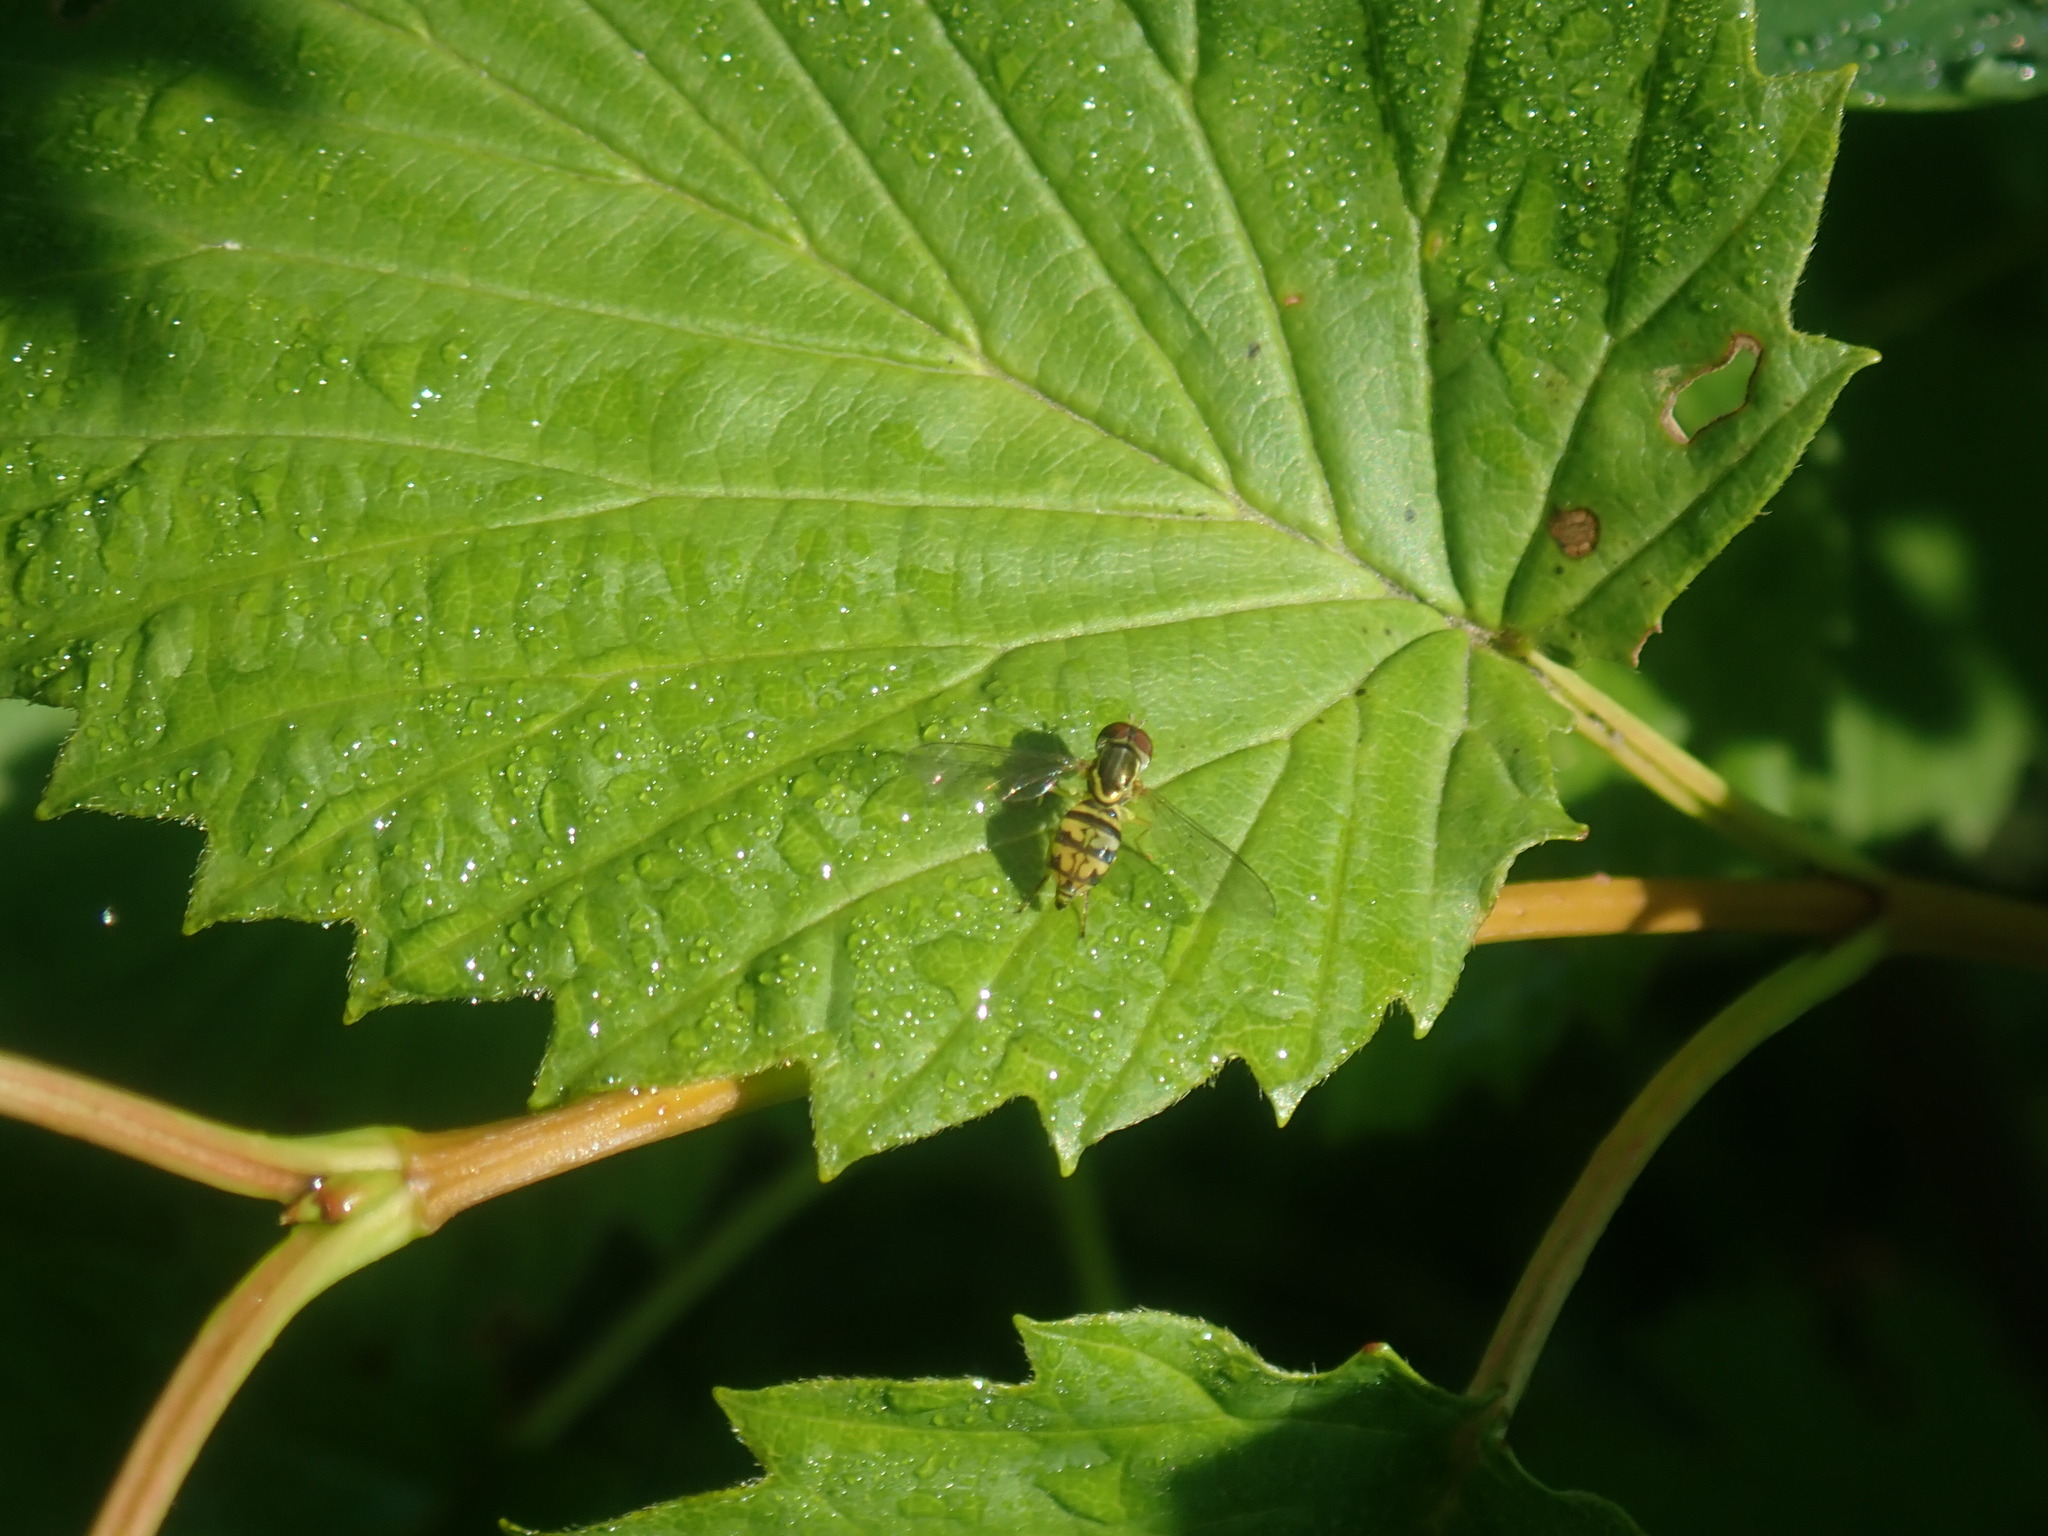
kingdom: Animalia
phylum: Arthropoda
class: Insecta
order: Diptera
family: Syrphidae
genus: Toxomerus
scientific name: Toxomerus geminatus
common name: Eastern calligrapher
